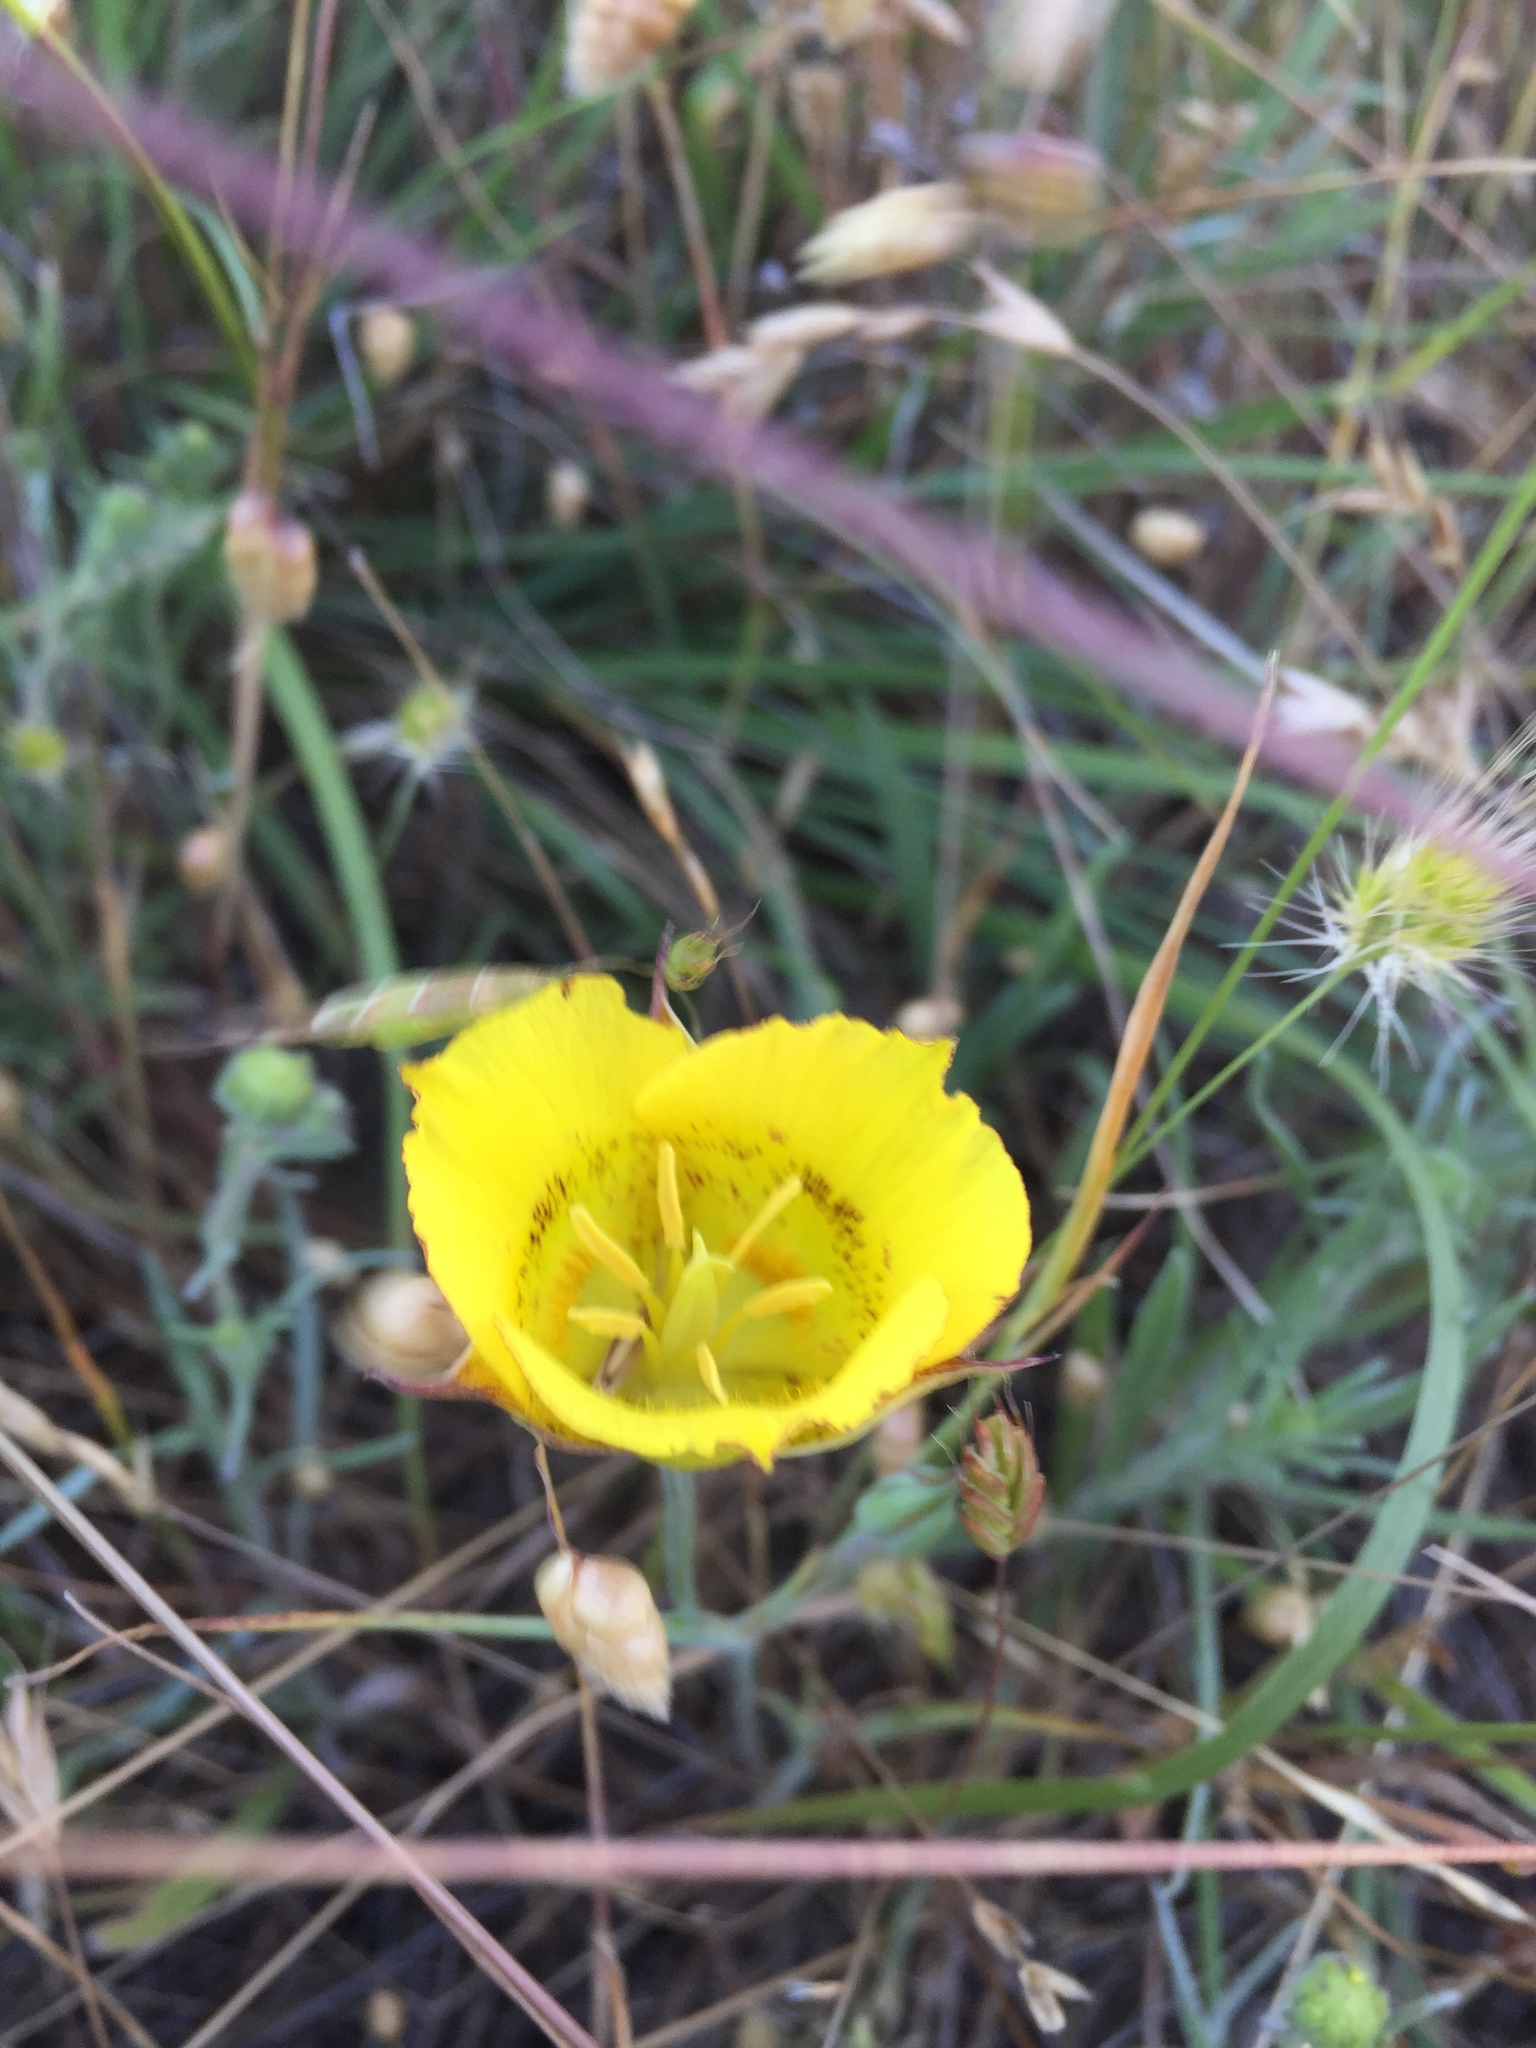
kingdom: Plantae
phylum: Tracheophyta
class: Liliopsida
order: Liliales
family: Liliaceae
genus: Calochortus
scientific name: Calochortus luteus
